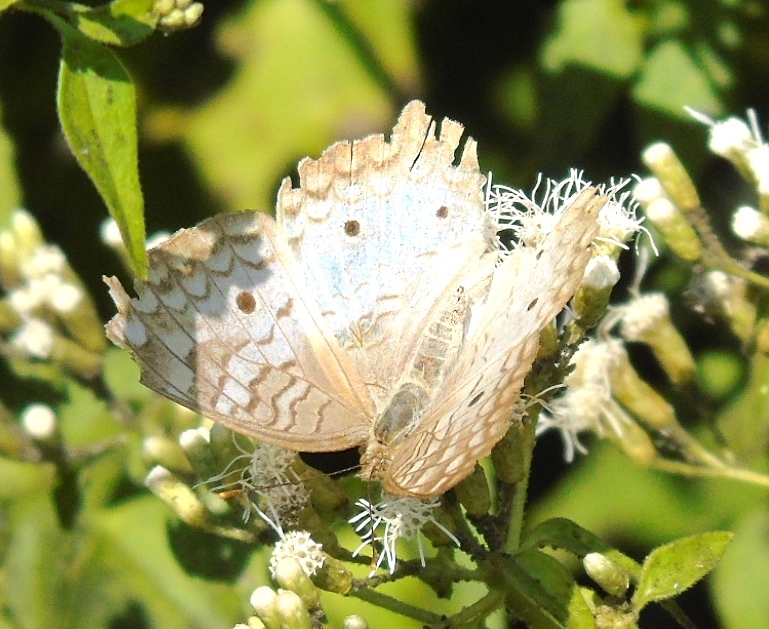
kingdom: Animalia
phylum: Arthropoda
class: Insecta
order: Lepidoptera
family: Nymphalidae
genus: Anartia
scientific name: Anartia jatrophae
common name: White peacock
